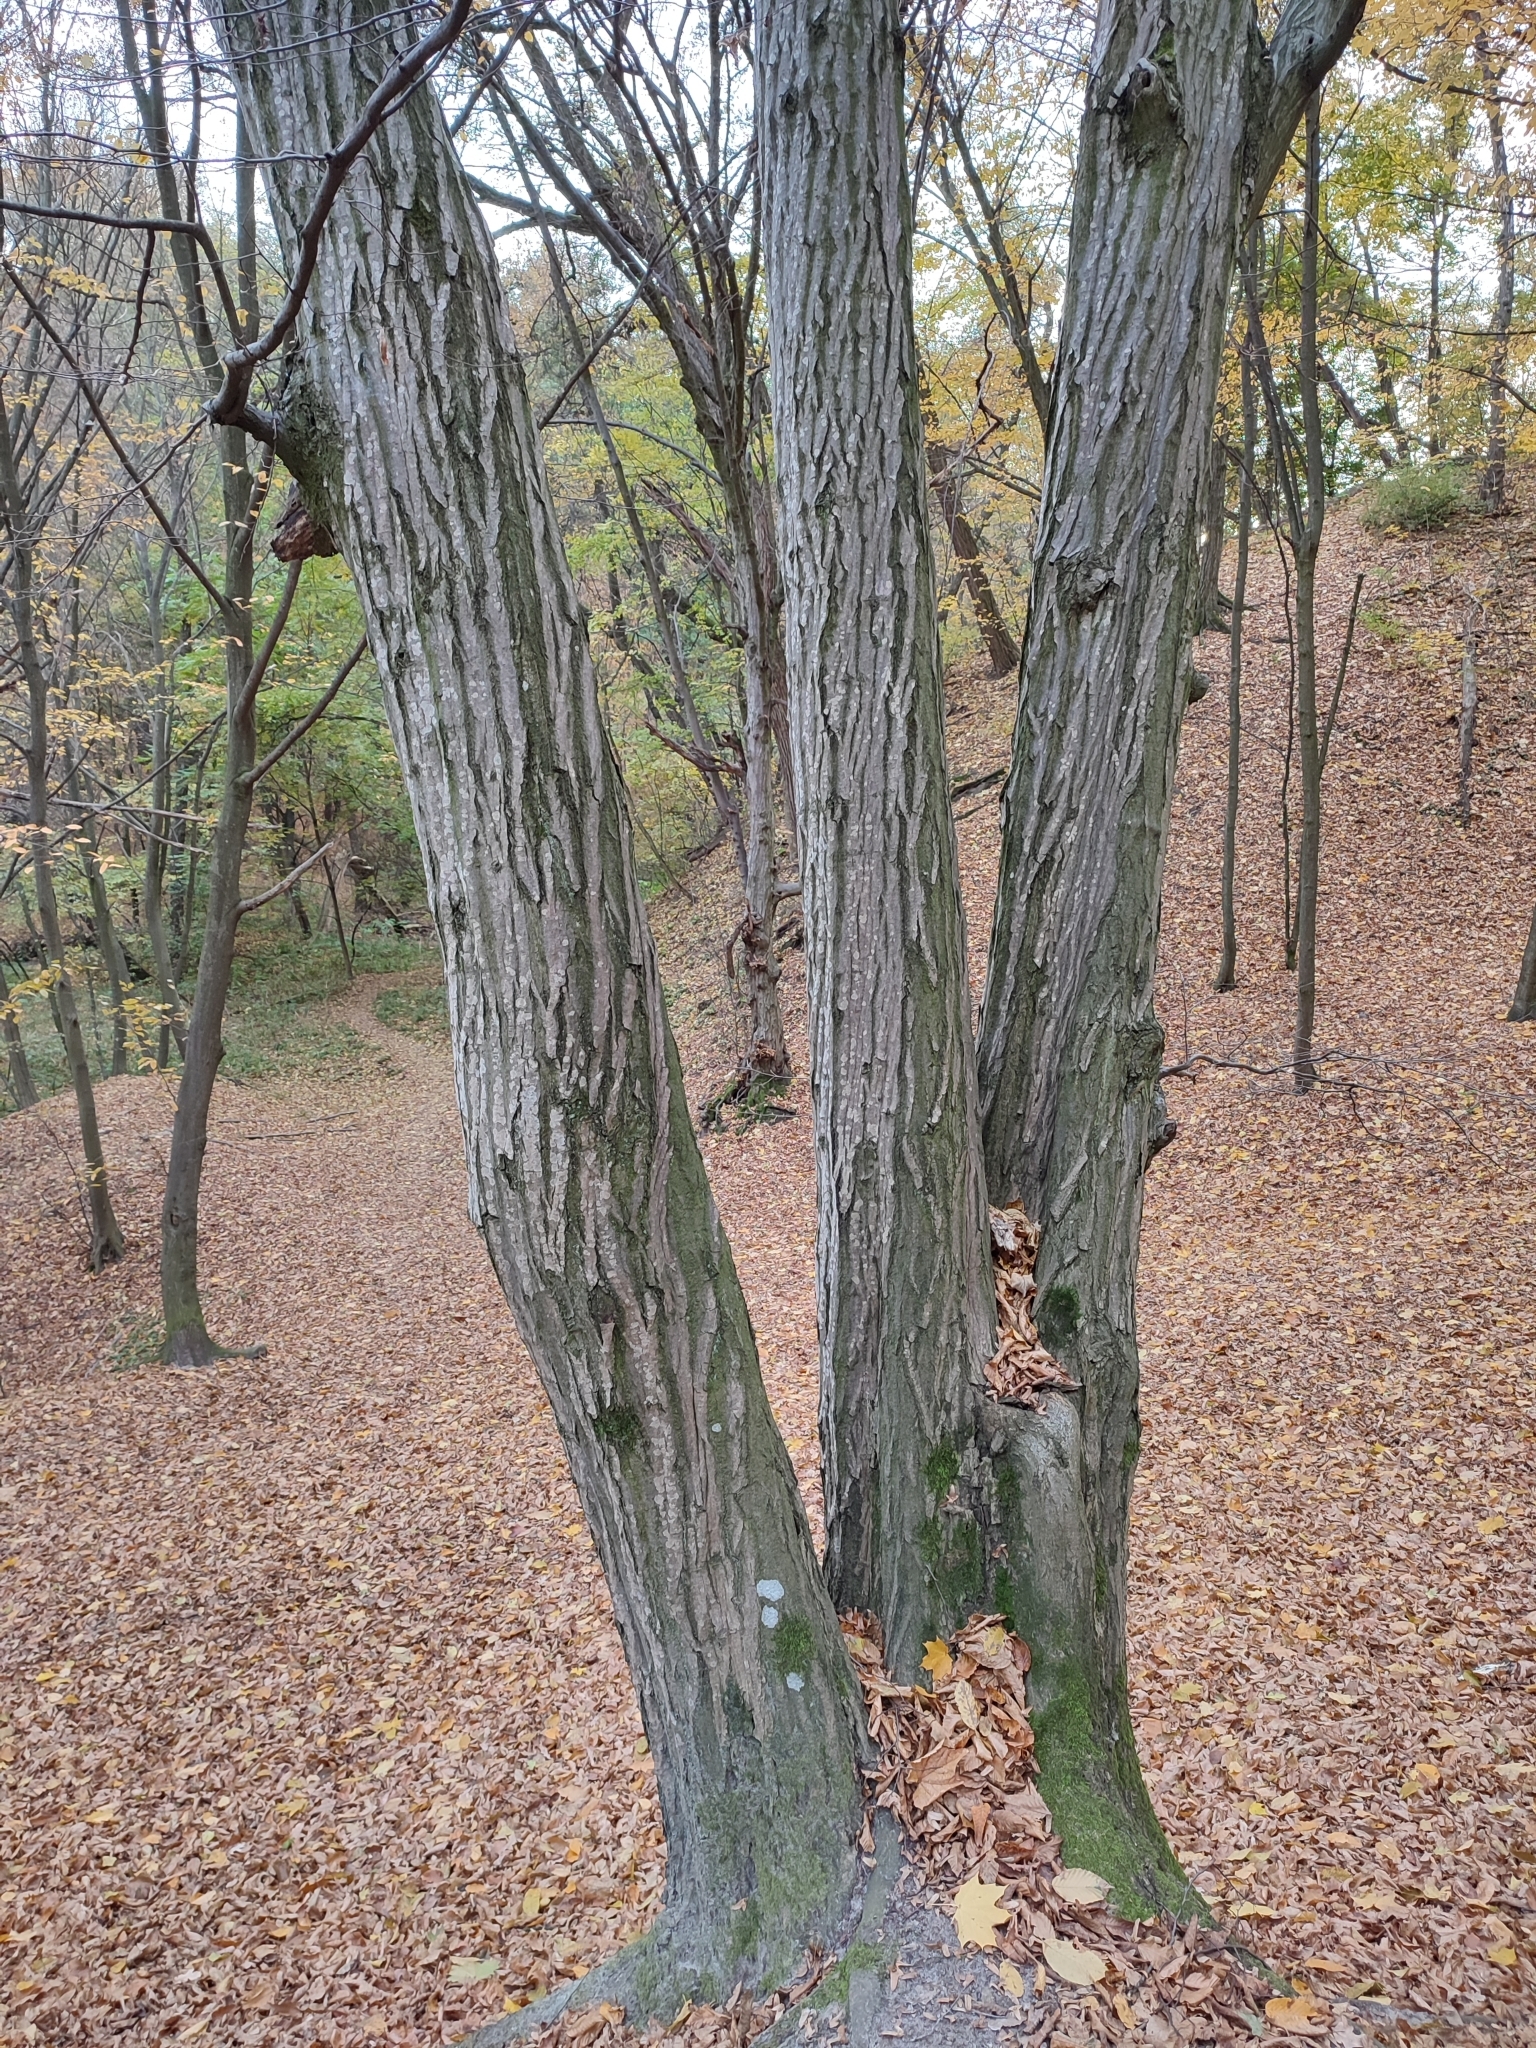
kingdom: Plantae
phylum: Tracheophyta
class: Magnoliopsida
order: Fagales
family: Betulaceae
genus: Carpinus
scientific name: Carpinus betulus
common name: Hornbeam
